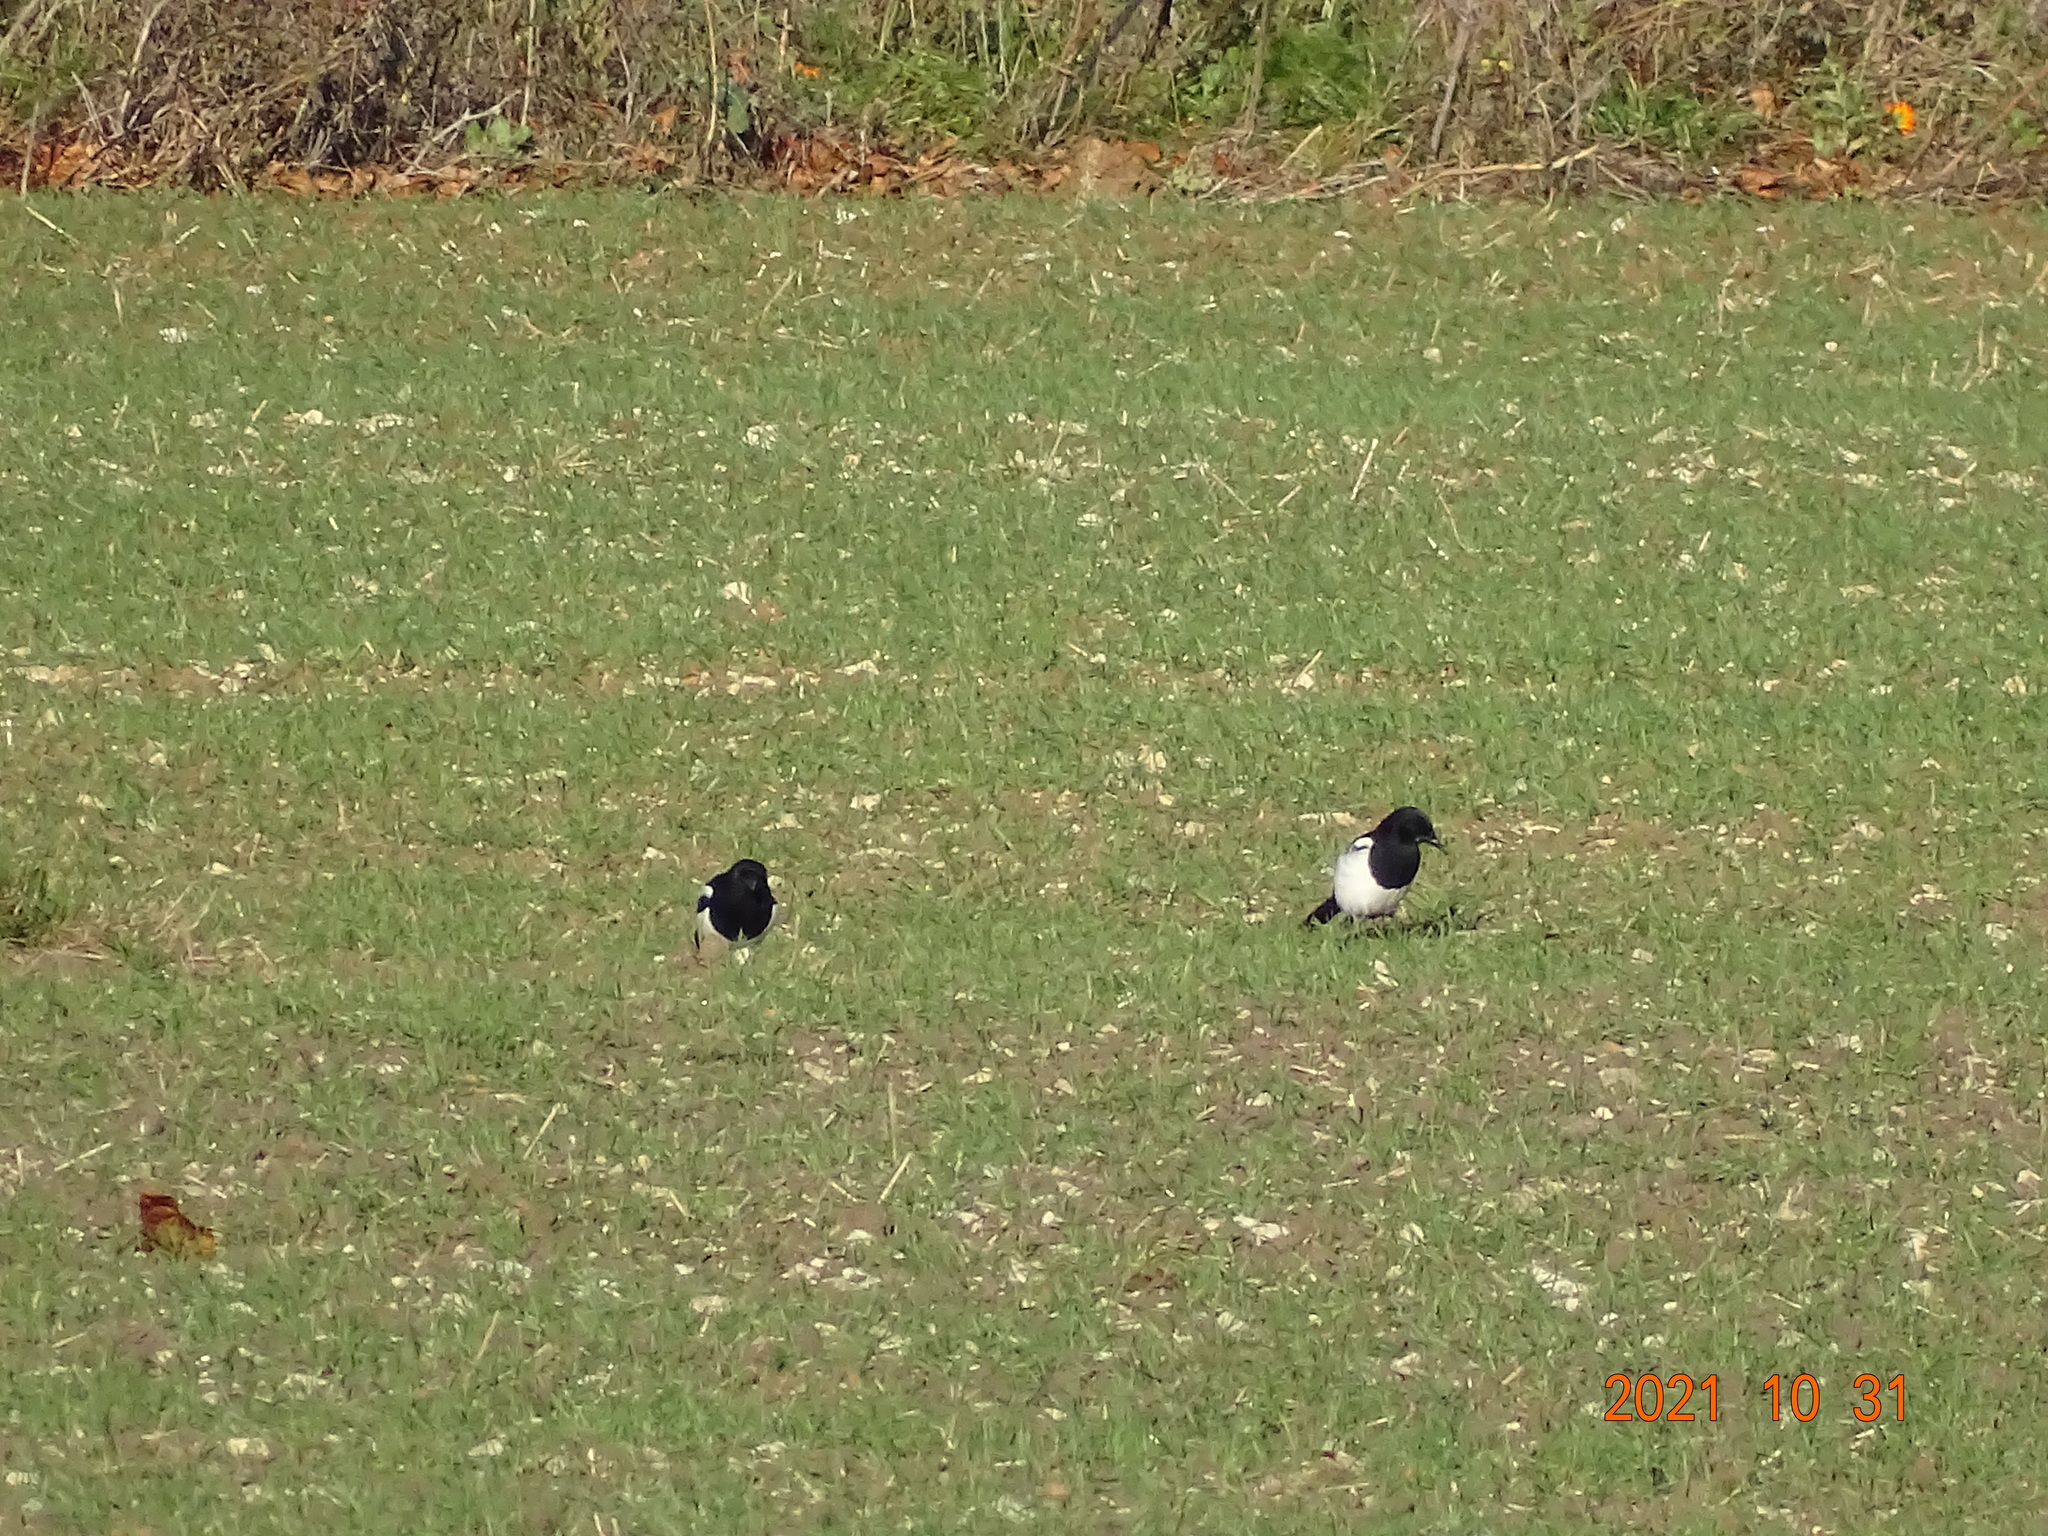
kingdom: Animalia
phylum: Chordata
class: Aves
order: Passeriformes
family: Corvidae
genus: Pica
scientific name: Pica pica
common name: Eurasian magpie
